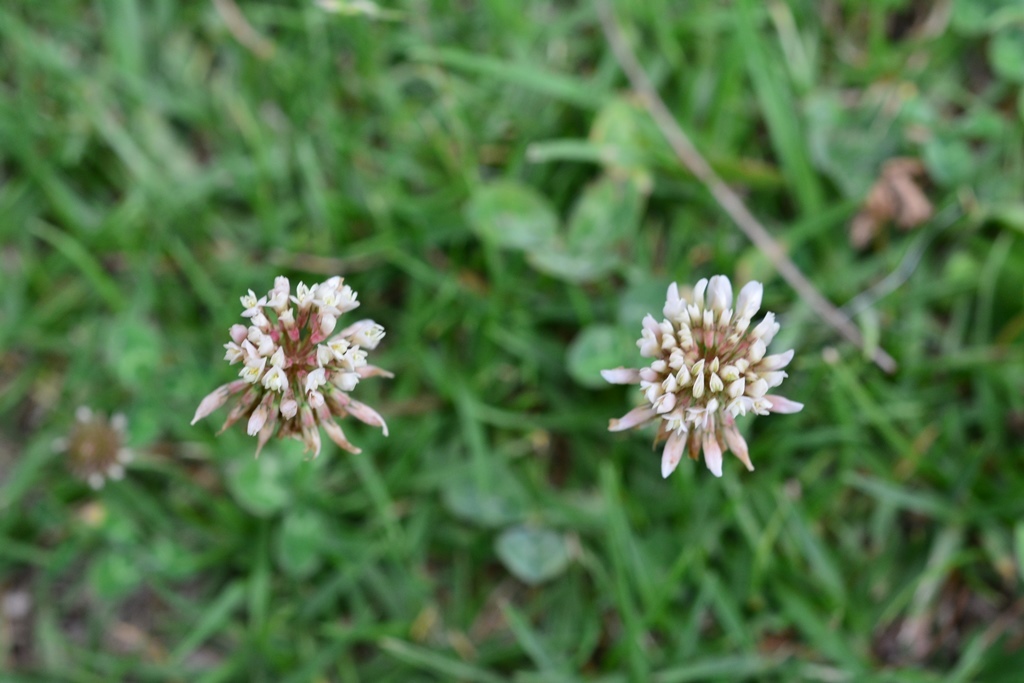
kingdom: Plantae
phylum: Tracheophyta
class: Magnoliopsida
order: Fabales
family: Fabaceae
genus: Trifolium
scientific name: Trifolium repens
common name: White clover
